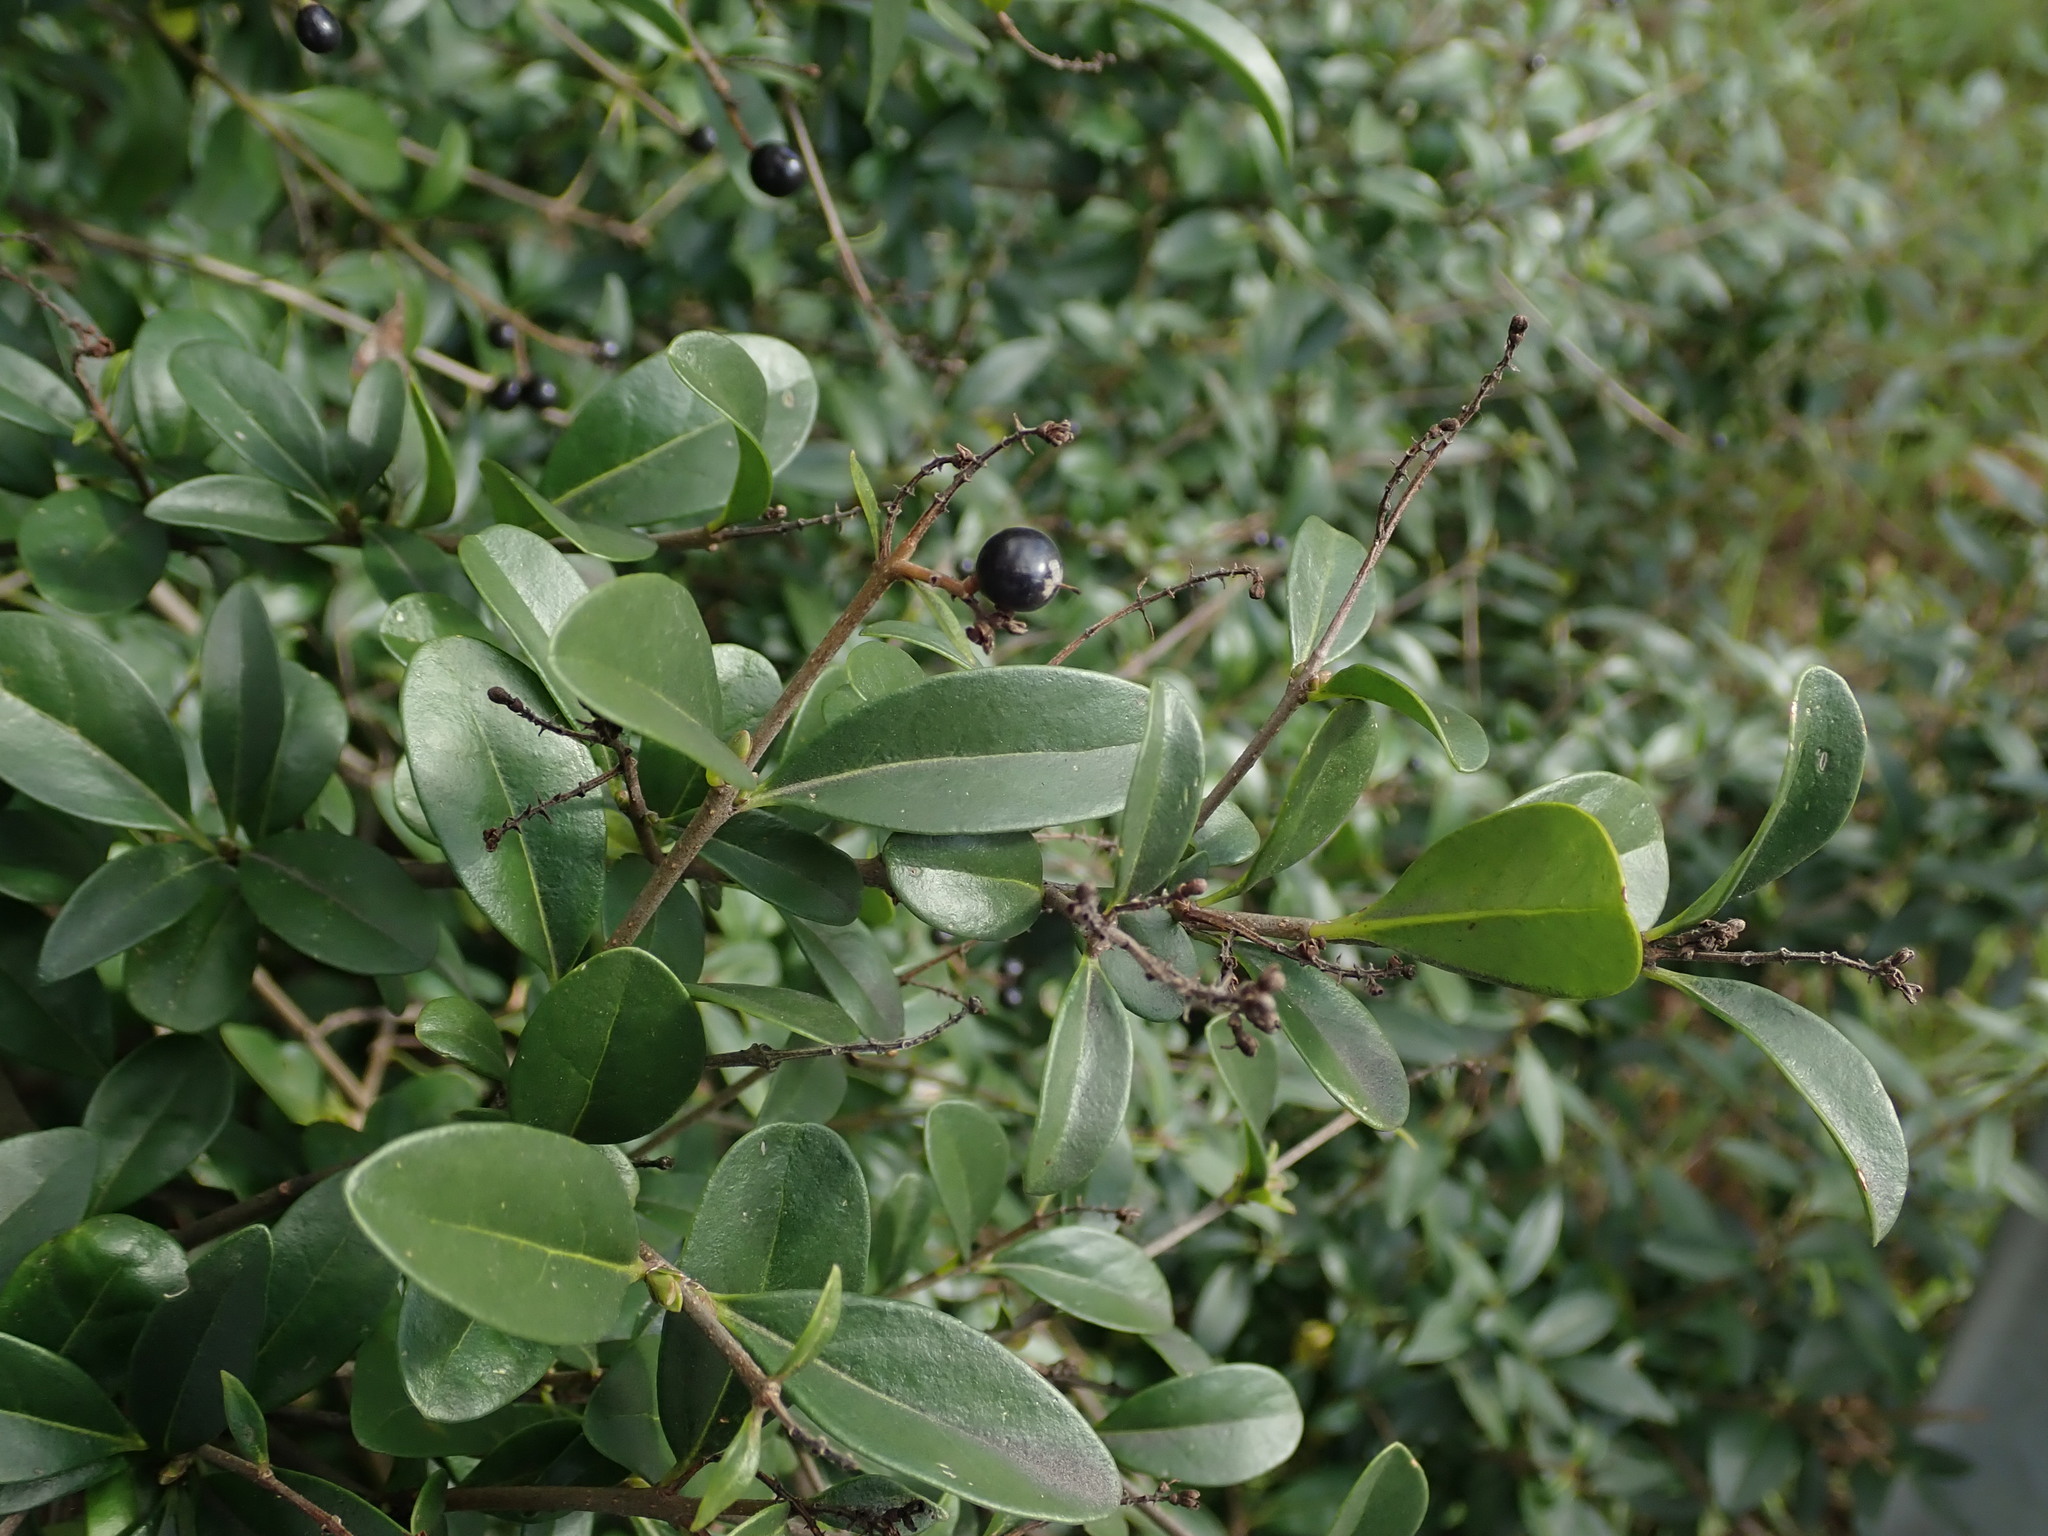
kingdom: Plantae
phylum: Tracheophyta
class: Magnoliopsida
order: Lamiales
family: Oleaceae
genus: Ligustrum
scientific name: Ligustrum vulgare
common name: Wild privet
